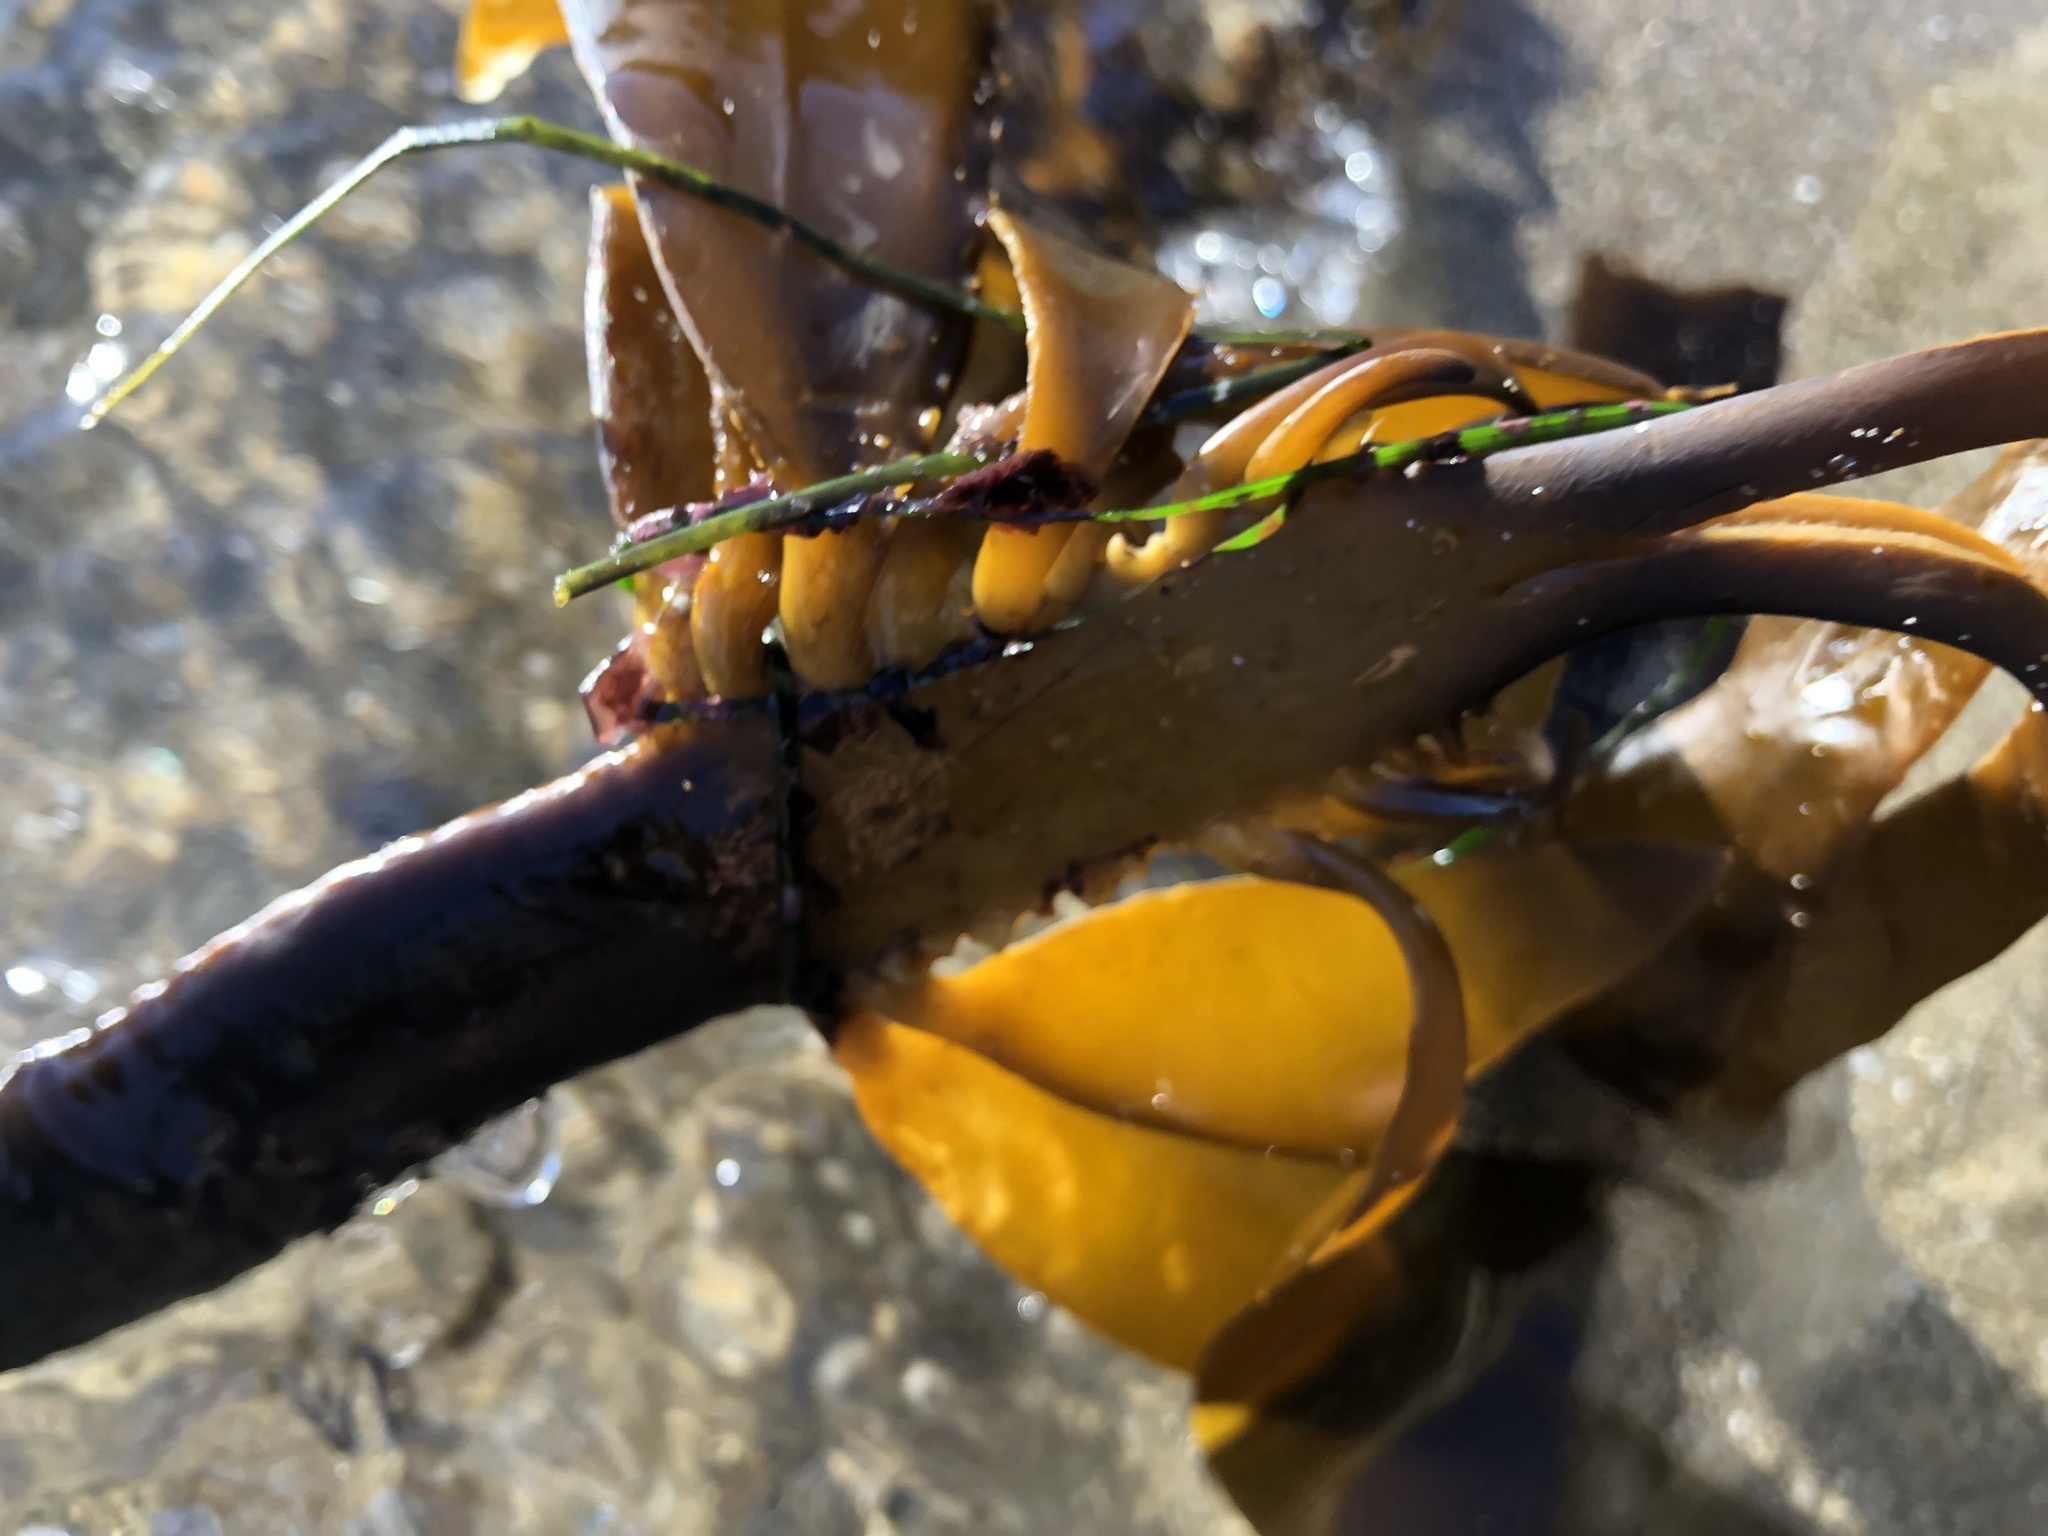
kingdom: Chromista
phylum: Ochrophyta
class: Phaeophyceae
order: Laminariales
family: Alariaceae
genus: Pterygophora
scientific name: Pterygophora californica
